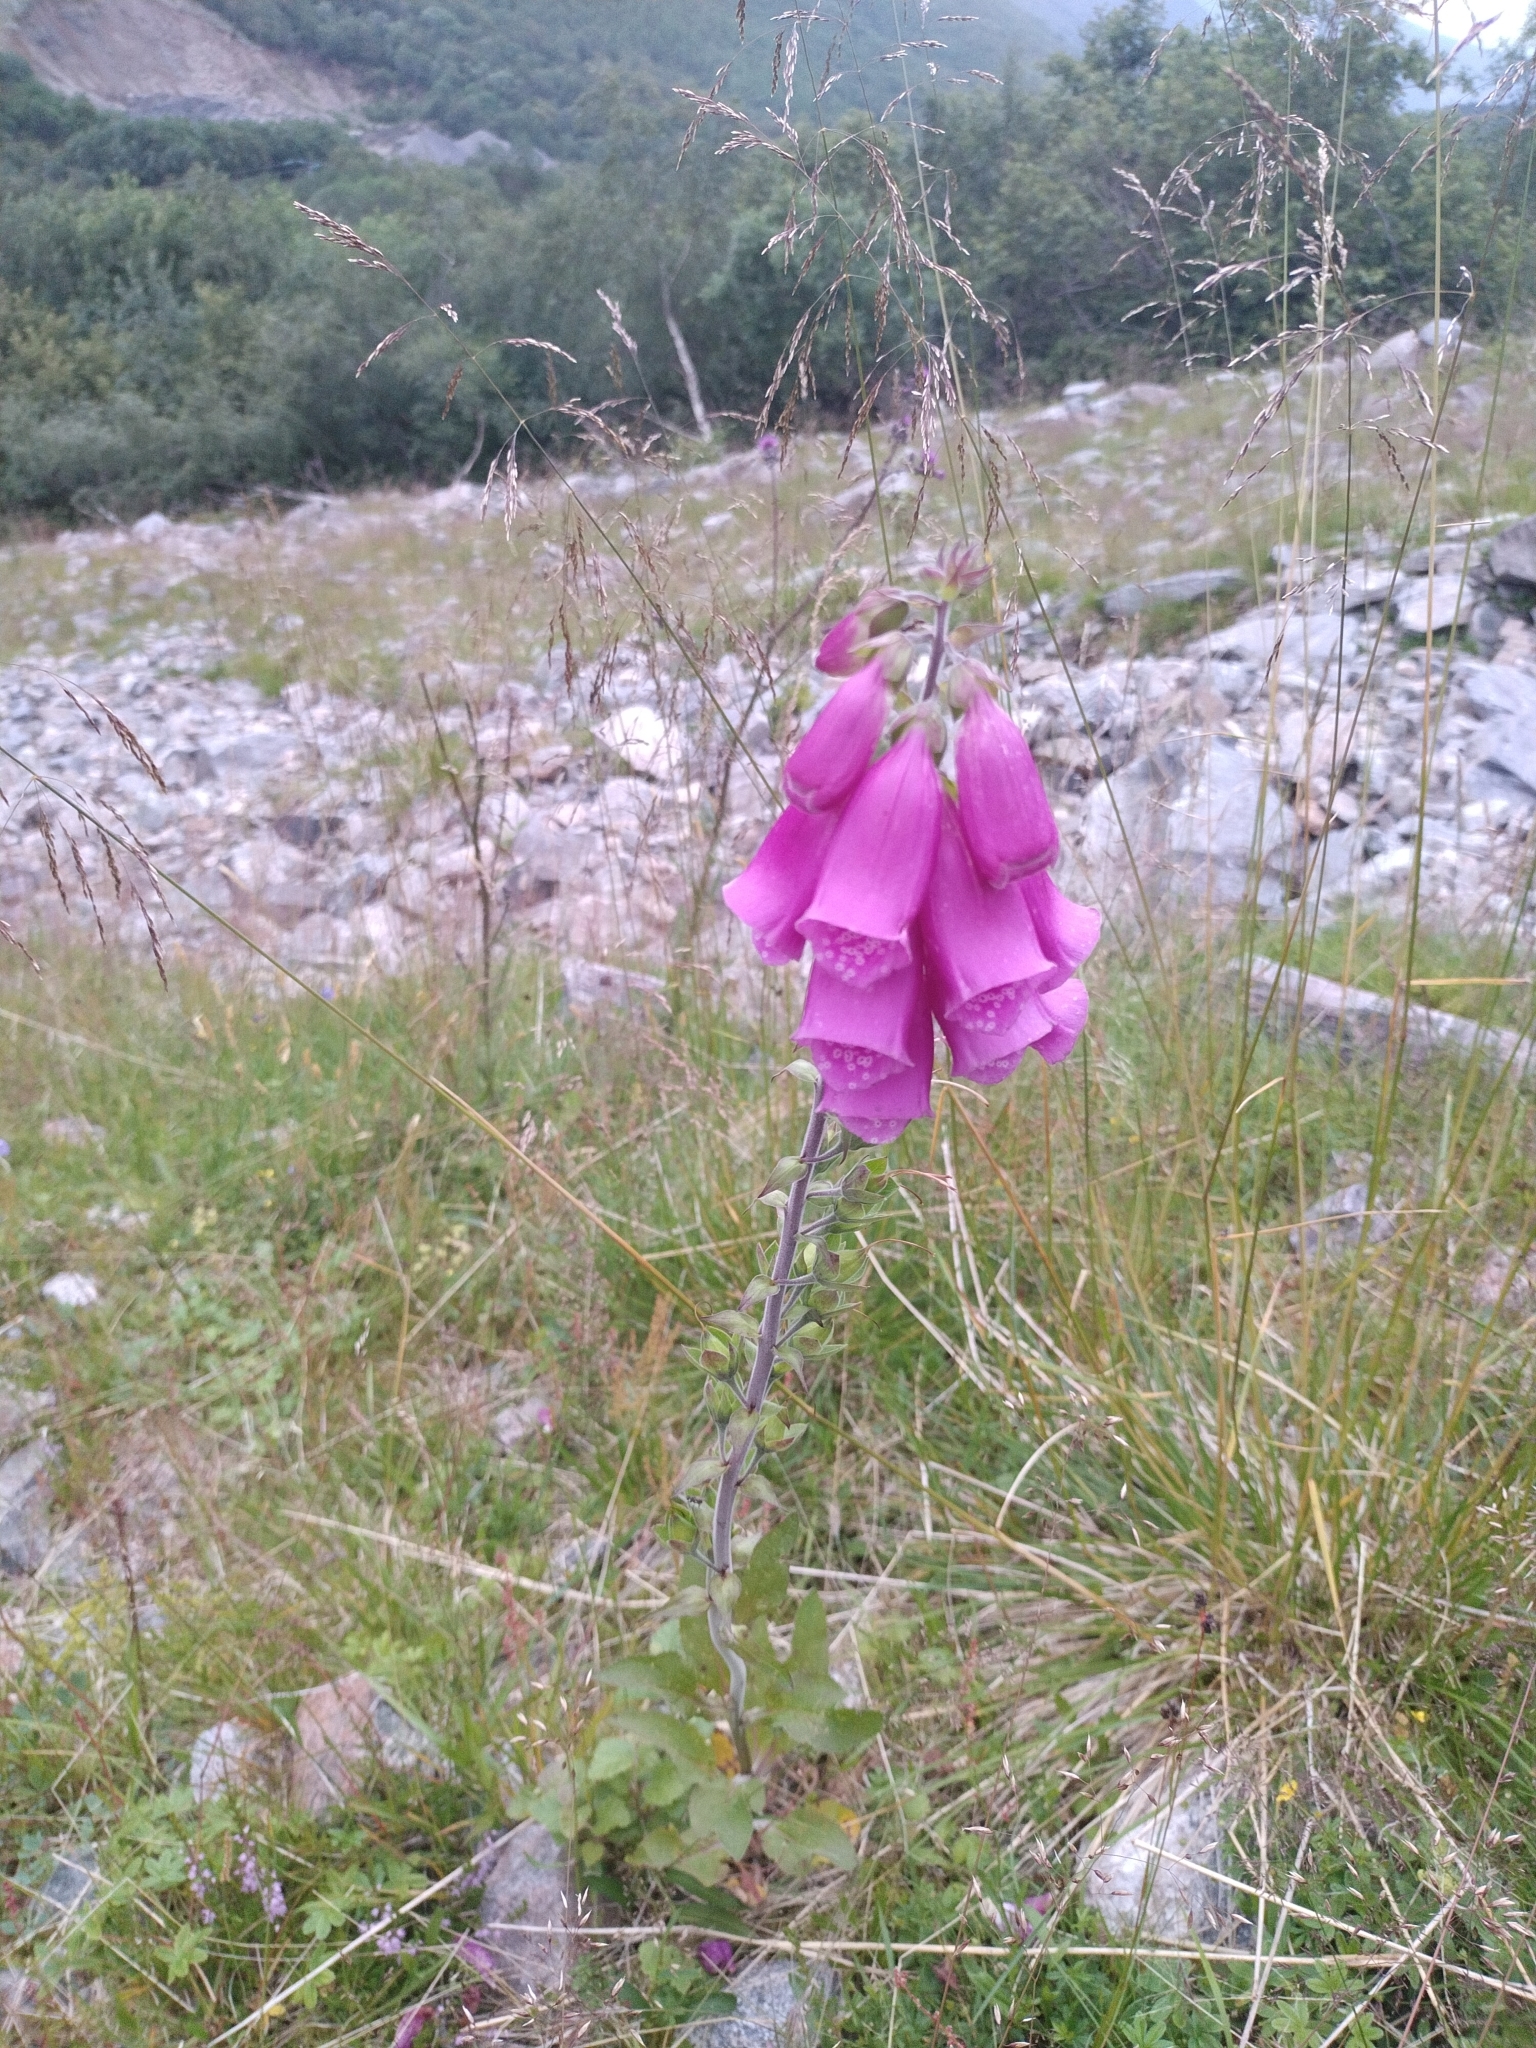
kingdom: Plantae
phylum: Tracheophyta
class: Magnoliopsida
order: Lamiales
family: Plantaginaceae
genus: Digitalis
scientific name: Digitalis purpurea
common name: Foxglove
